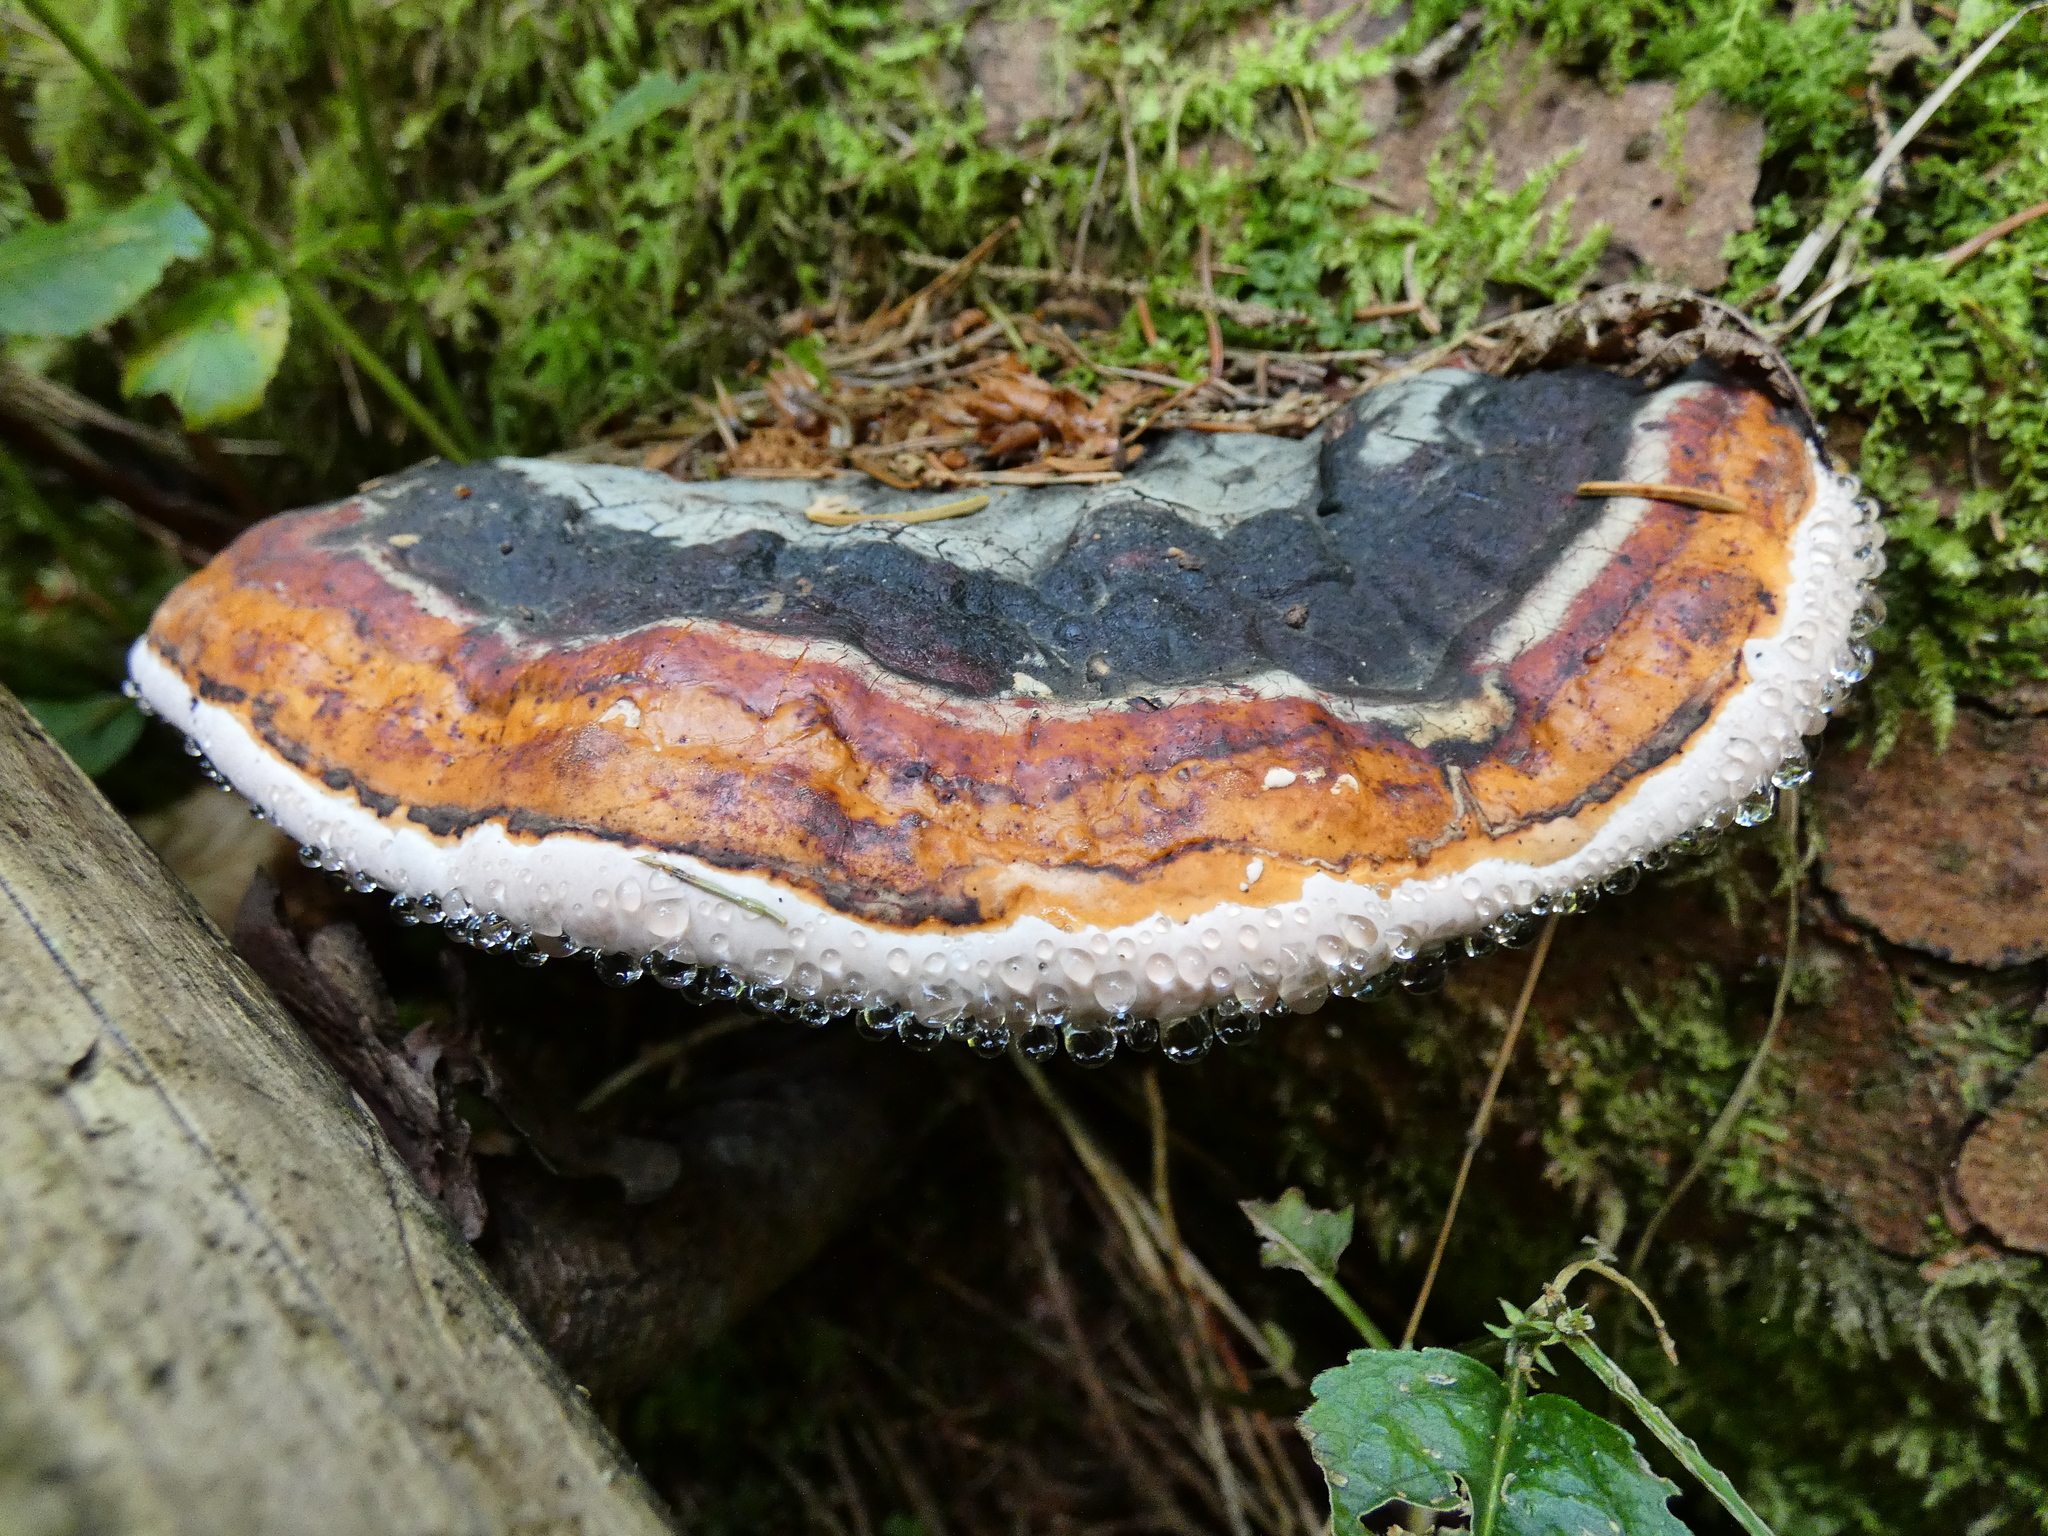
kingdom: Fungi
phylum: Basidiomycota
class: Agaricomycetes
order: Polyporales
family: Fomitopsidaceae
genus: Fomitopsis
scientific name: Fomitopsis pinicola
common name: Red-belted bracket
